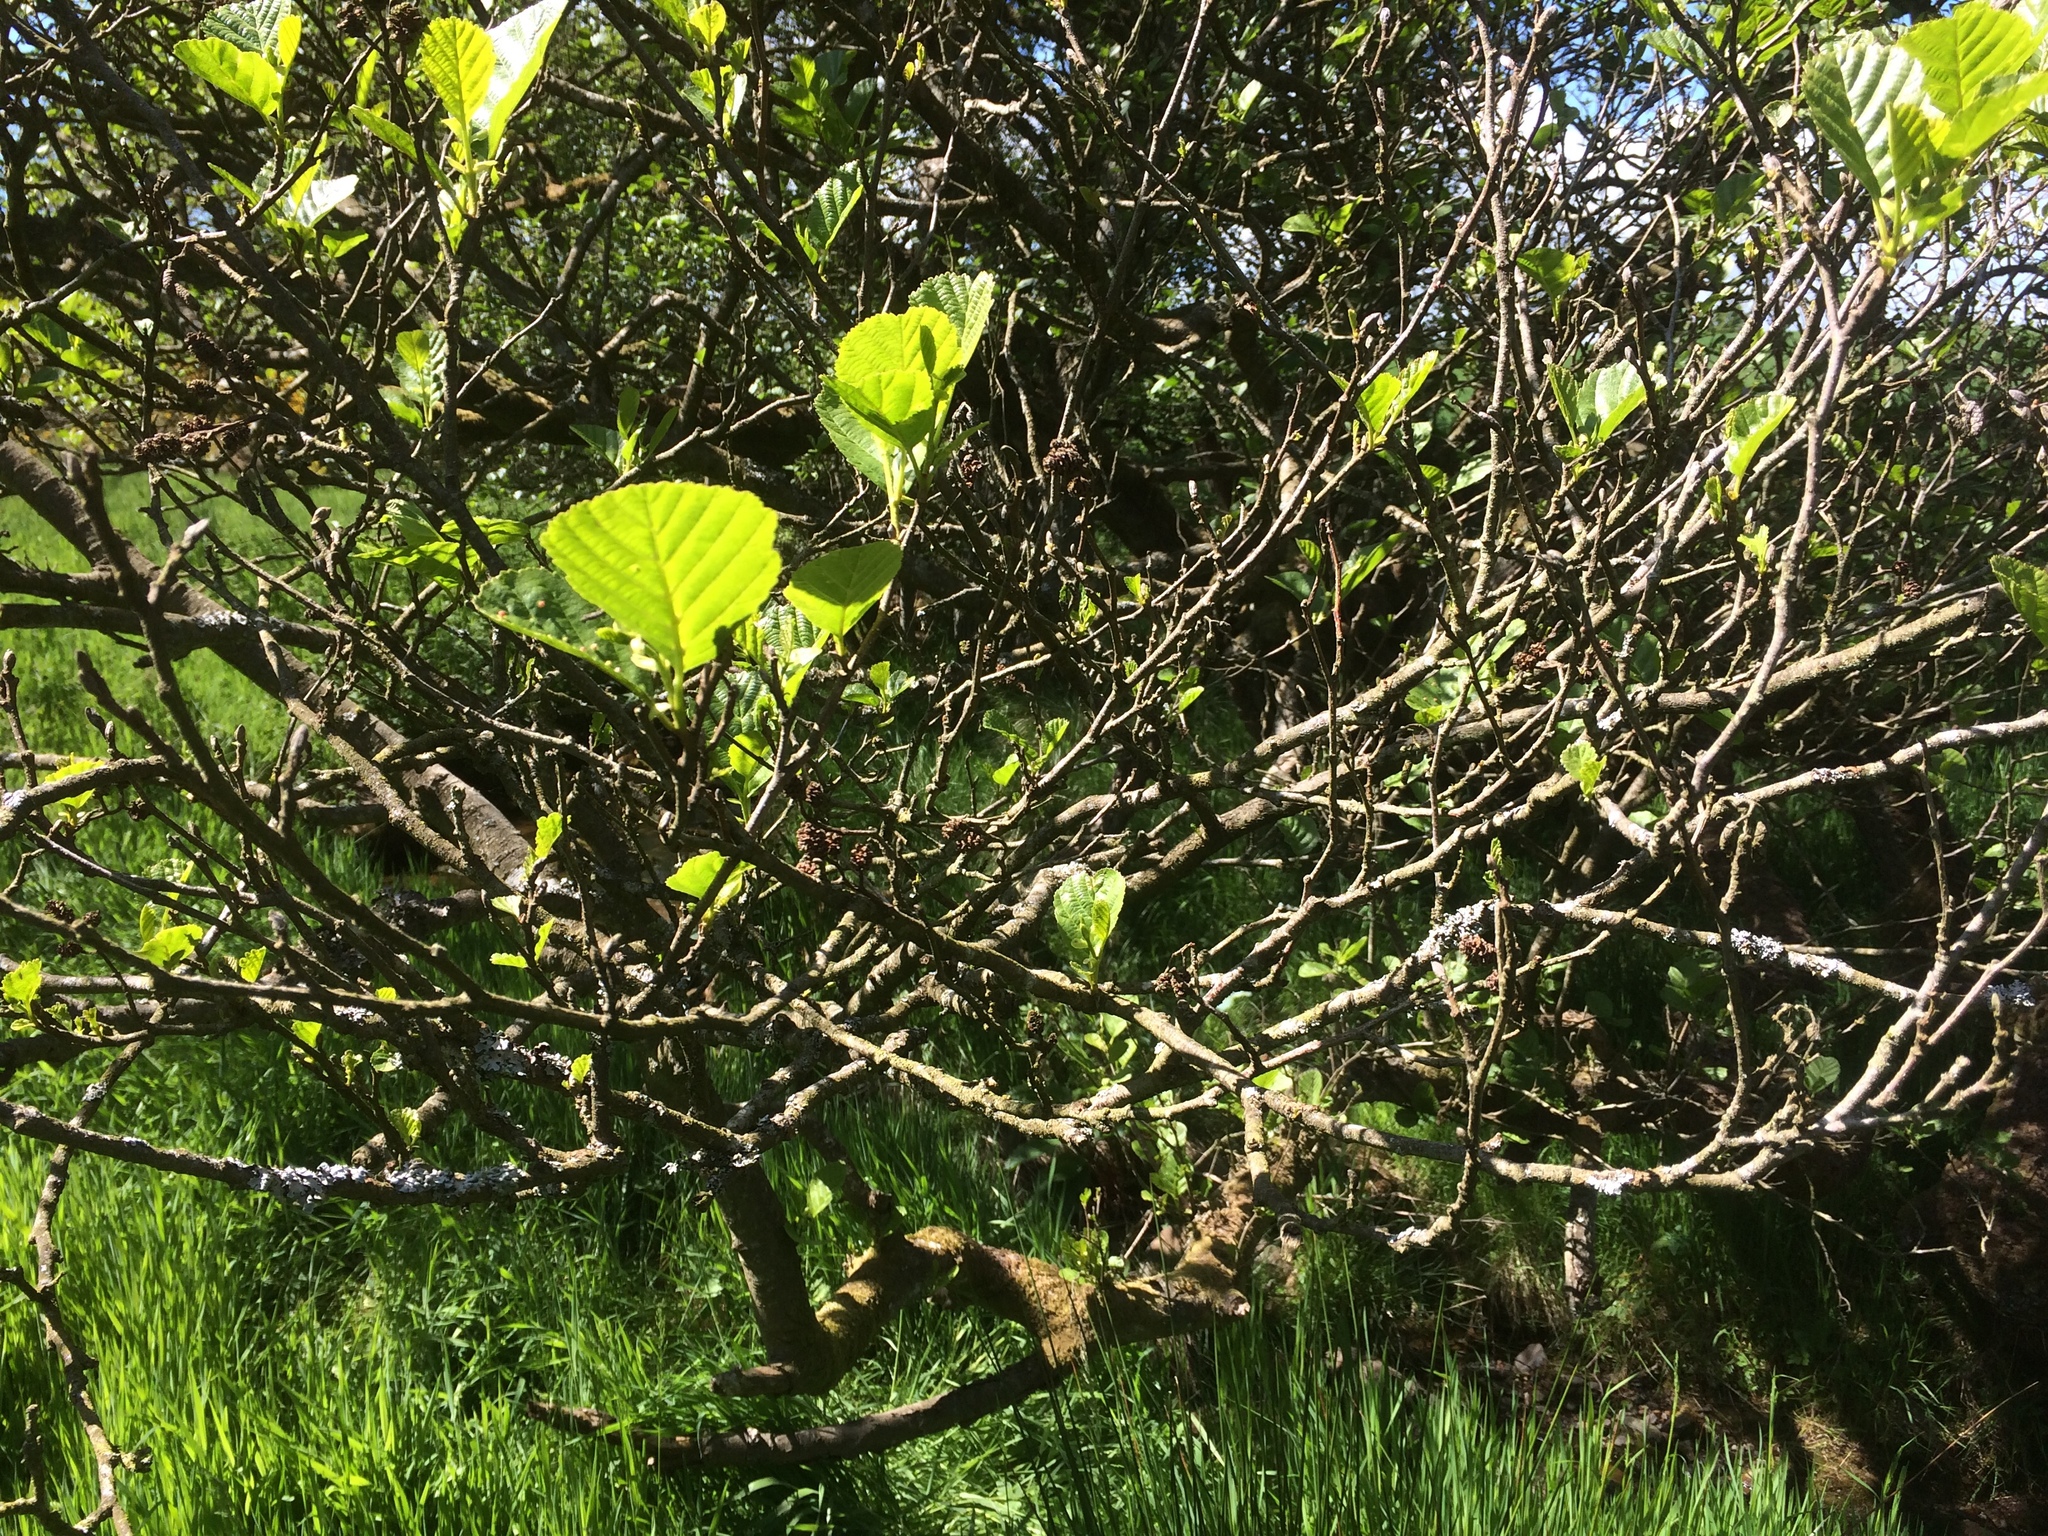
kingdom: Plantae
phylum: Tracheophyta
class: Magnoliopsida
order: Fagales
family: Betulaceae
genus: Alnus
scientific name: Alnus glutinosa
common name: Black alder
